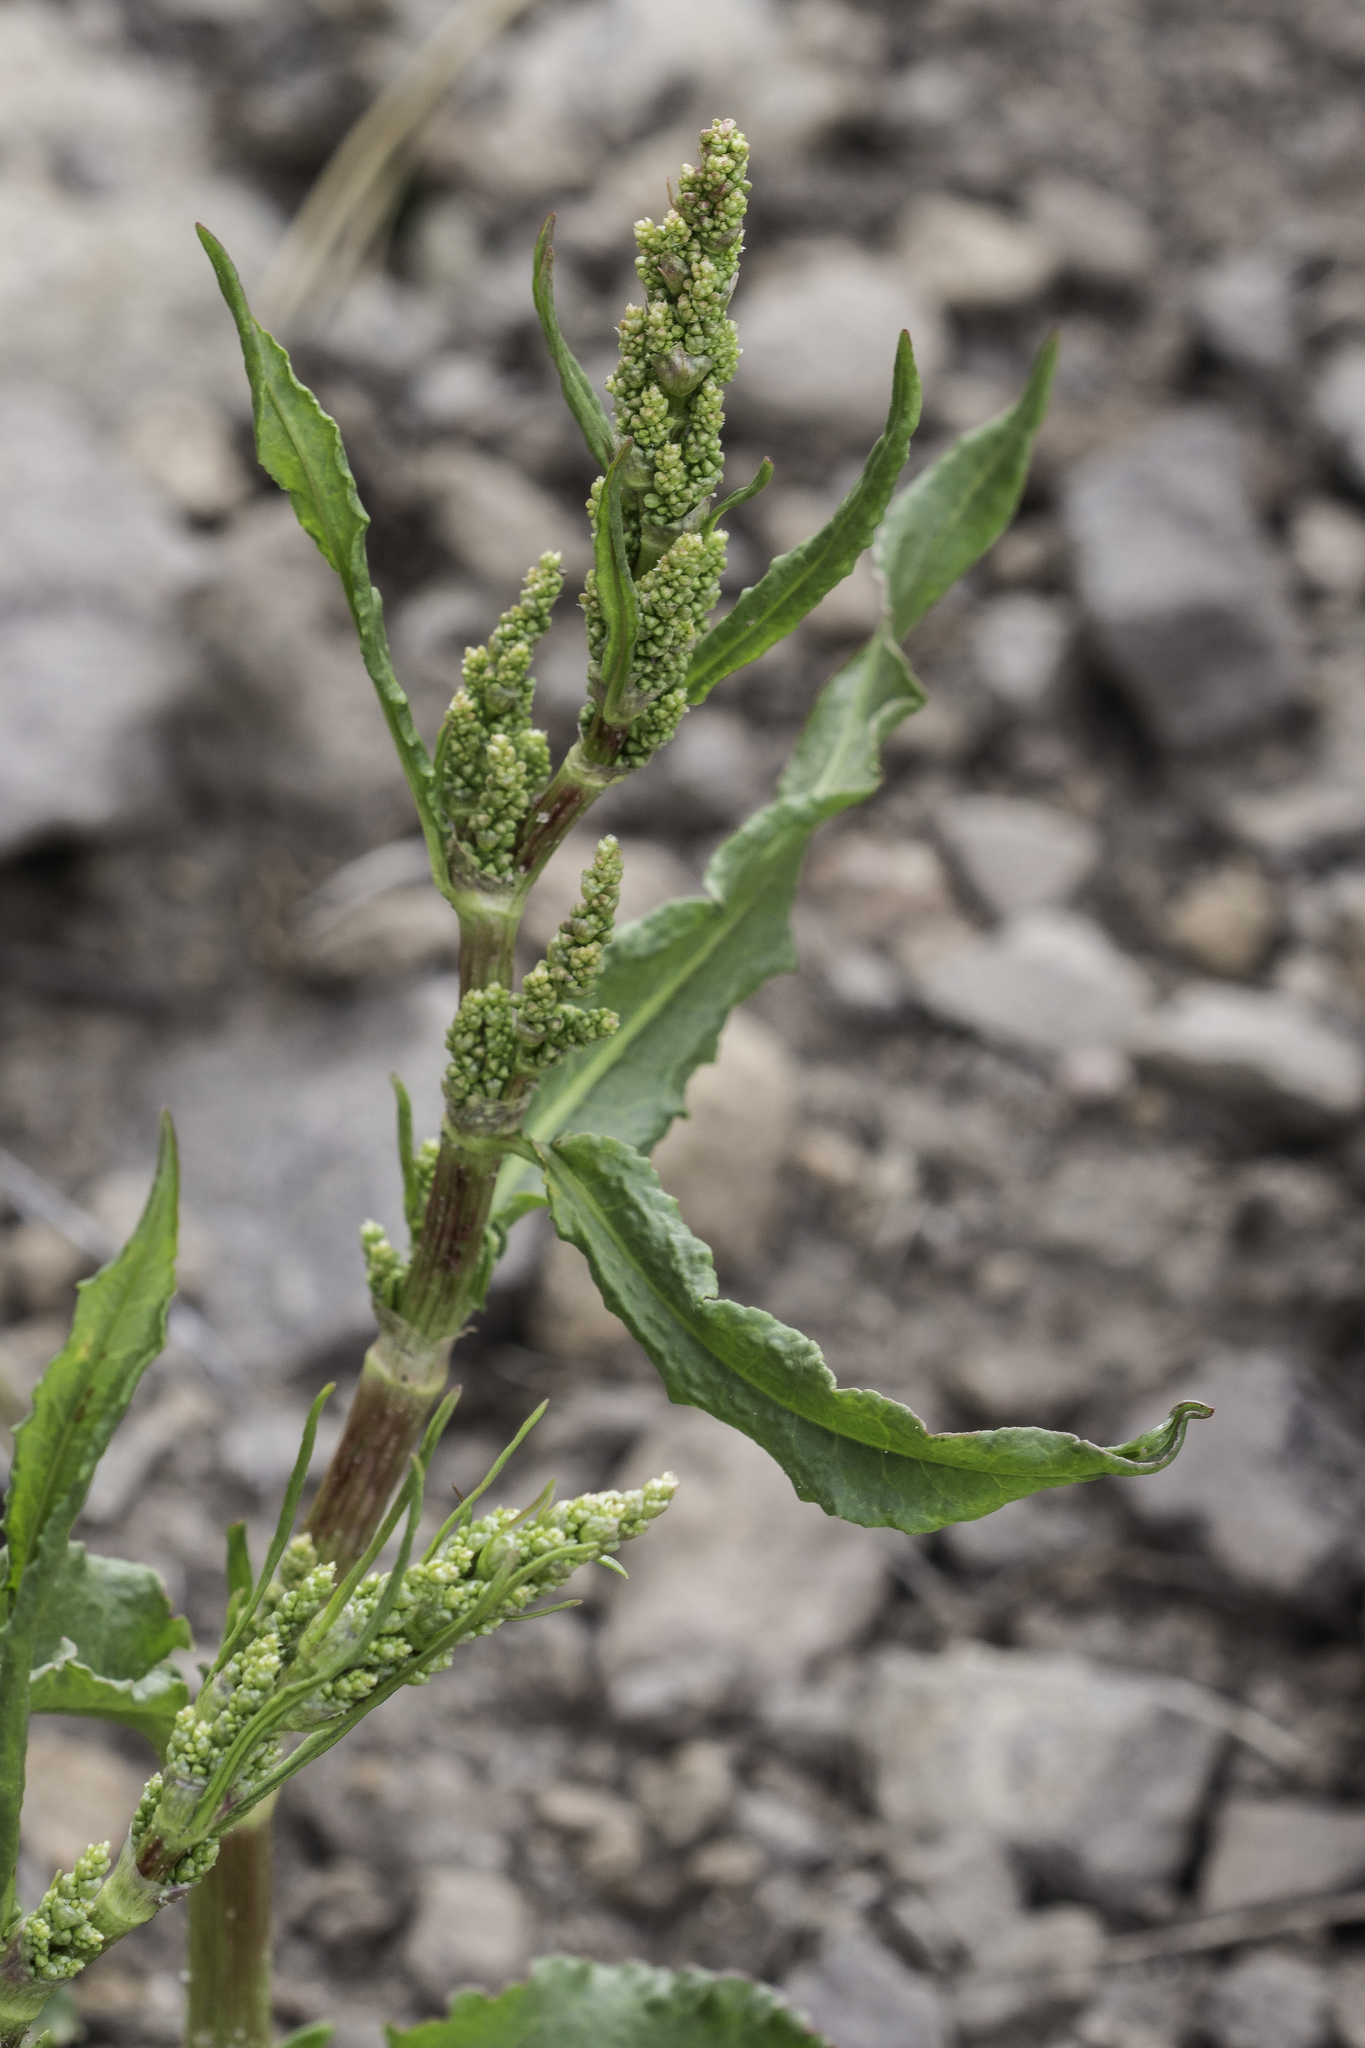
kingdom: Plantae
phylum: Tracheophyta
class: Magnoliopsida
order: Caryophyllales
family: Polygonaceae
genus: Rumex
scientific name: Rumex crispus
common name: Curled dock
